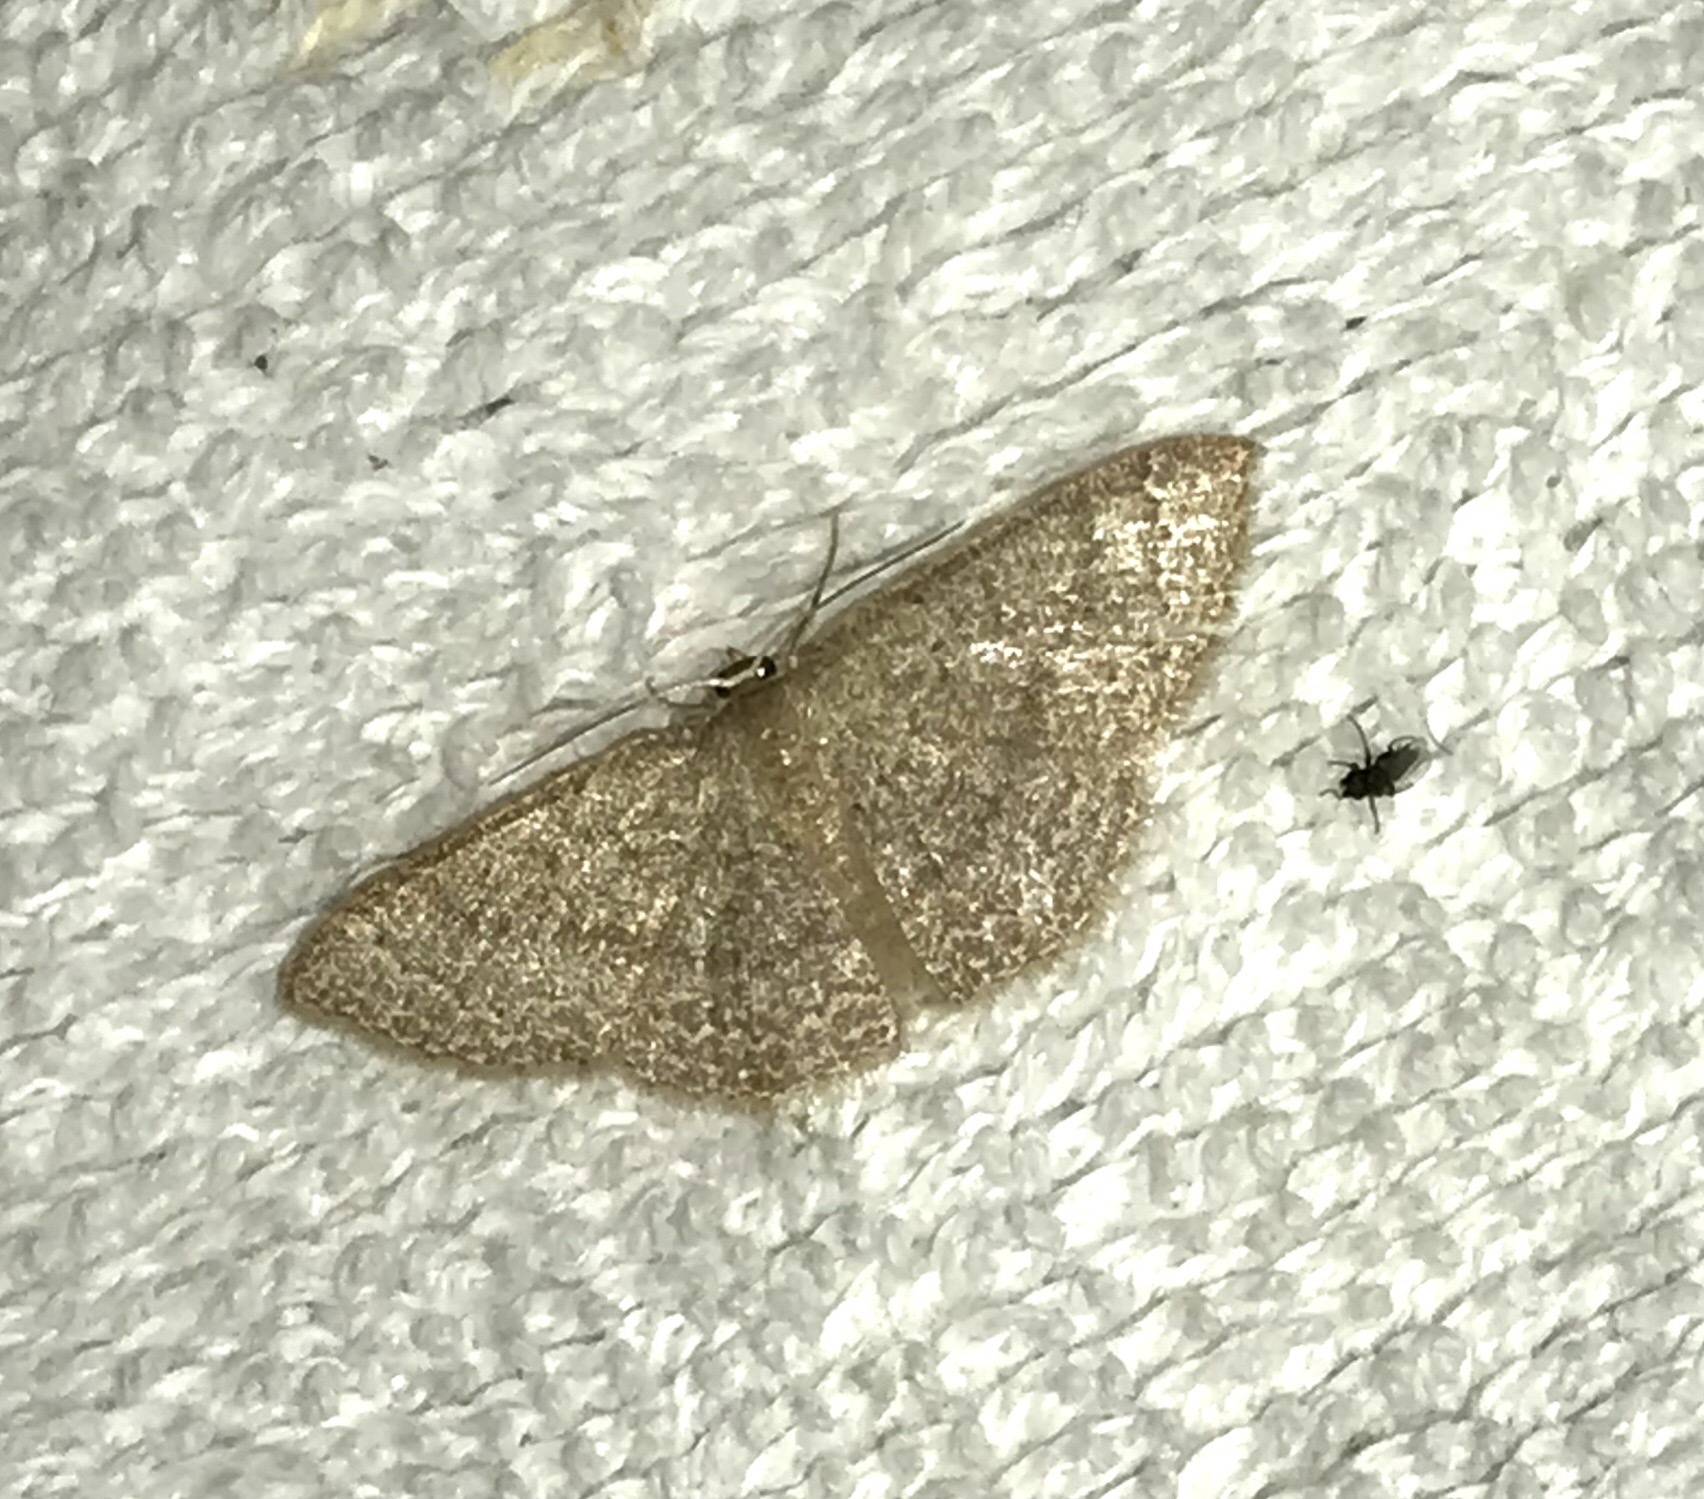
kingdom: Animalia
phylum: Arthropoda
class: Insecta
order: Lepidoptera
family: Geometridae
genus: Pleuroprucha
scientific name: Pleuroprucha insulsaria
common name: Common tan wave
